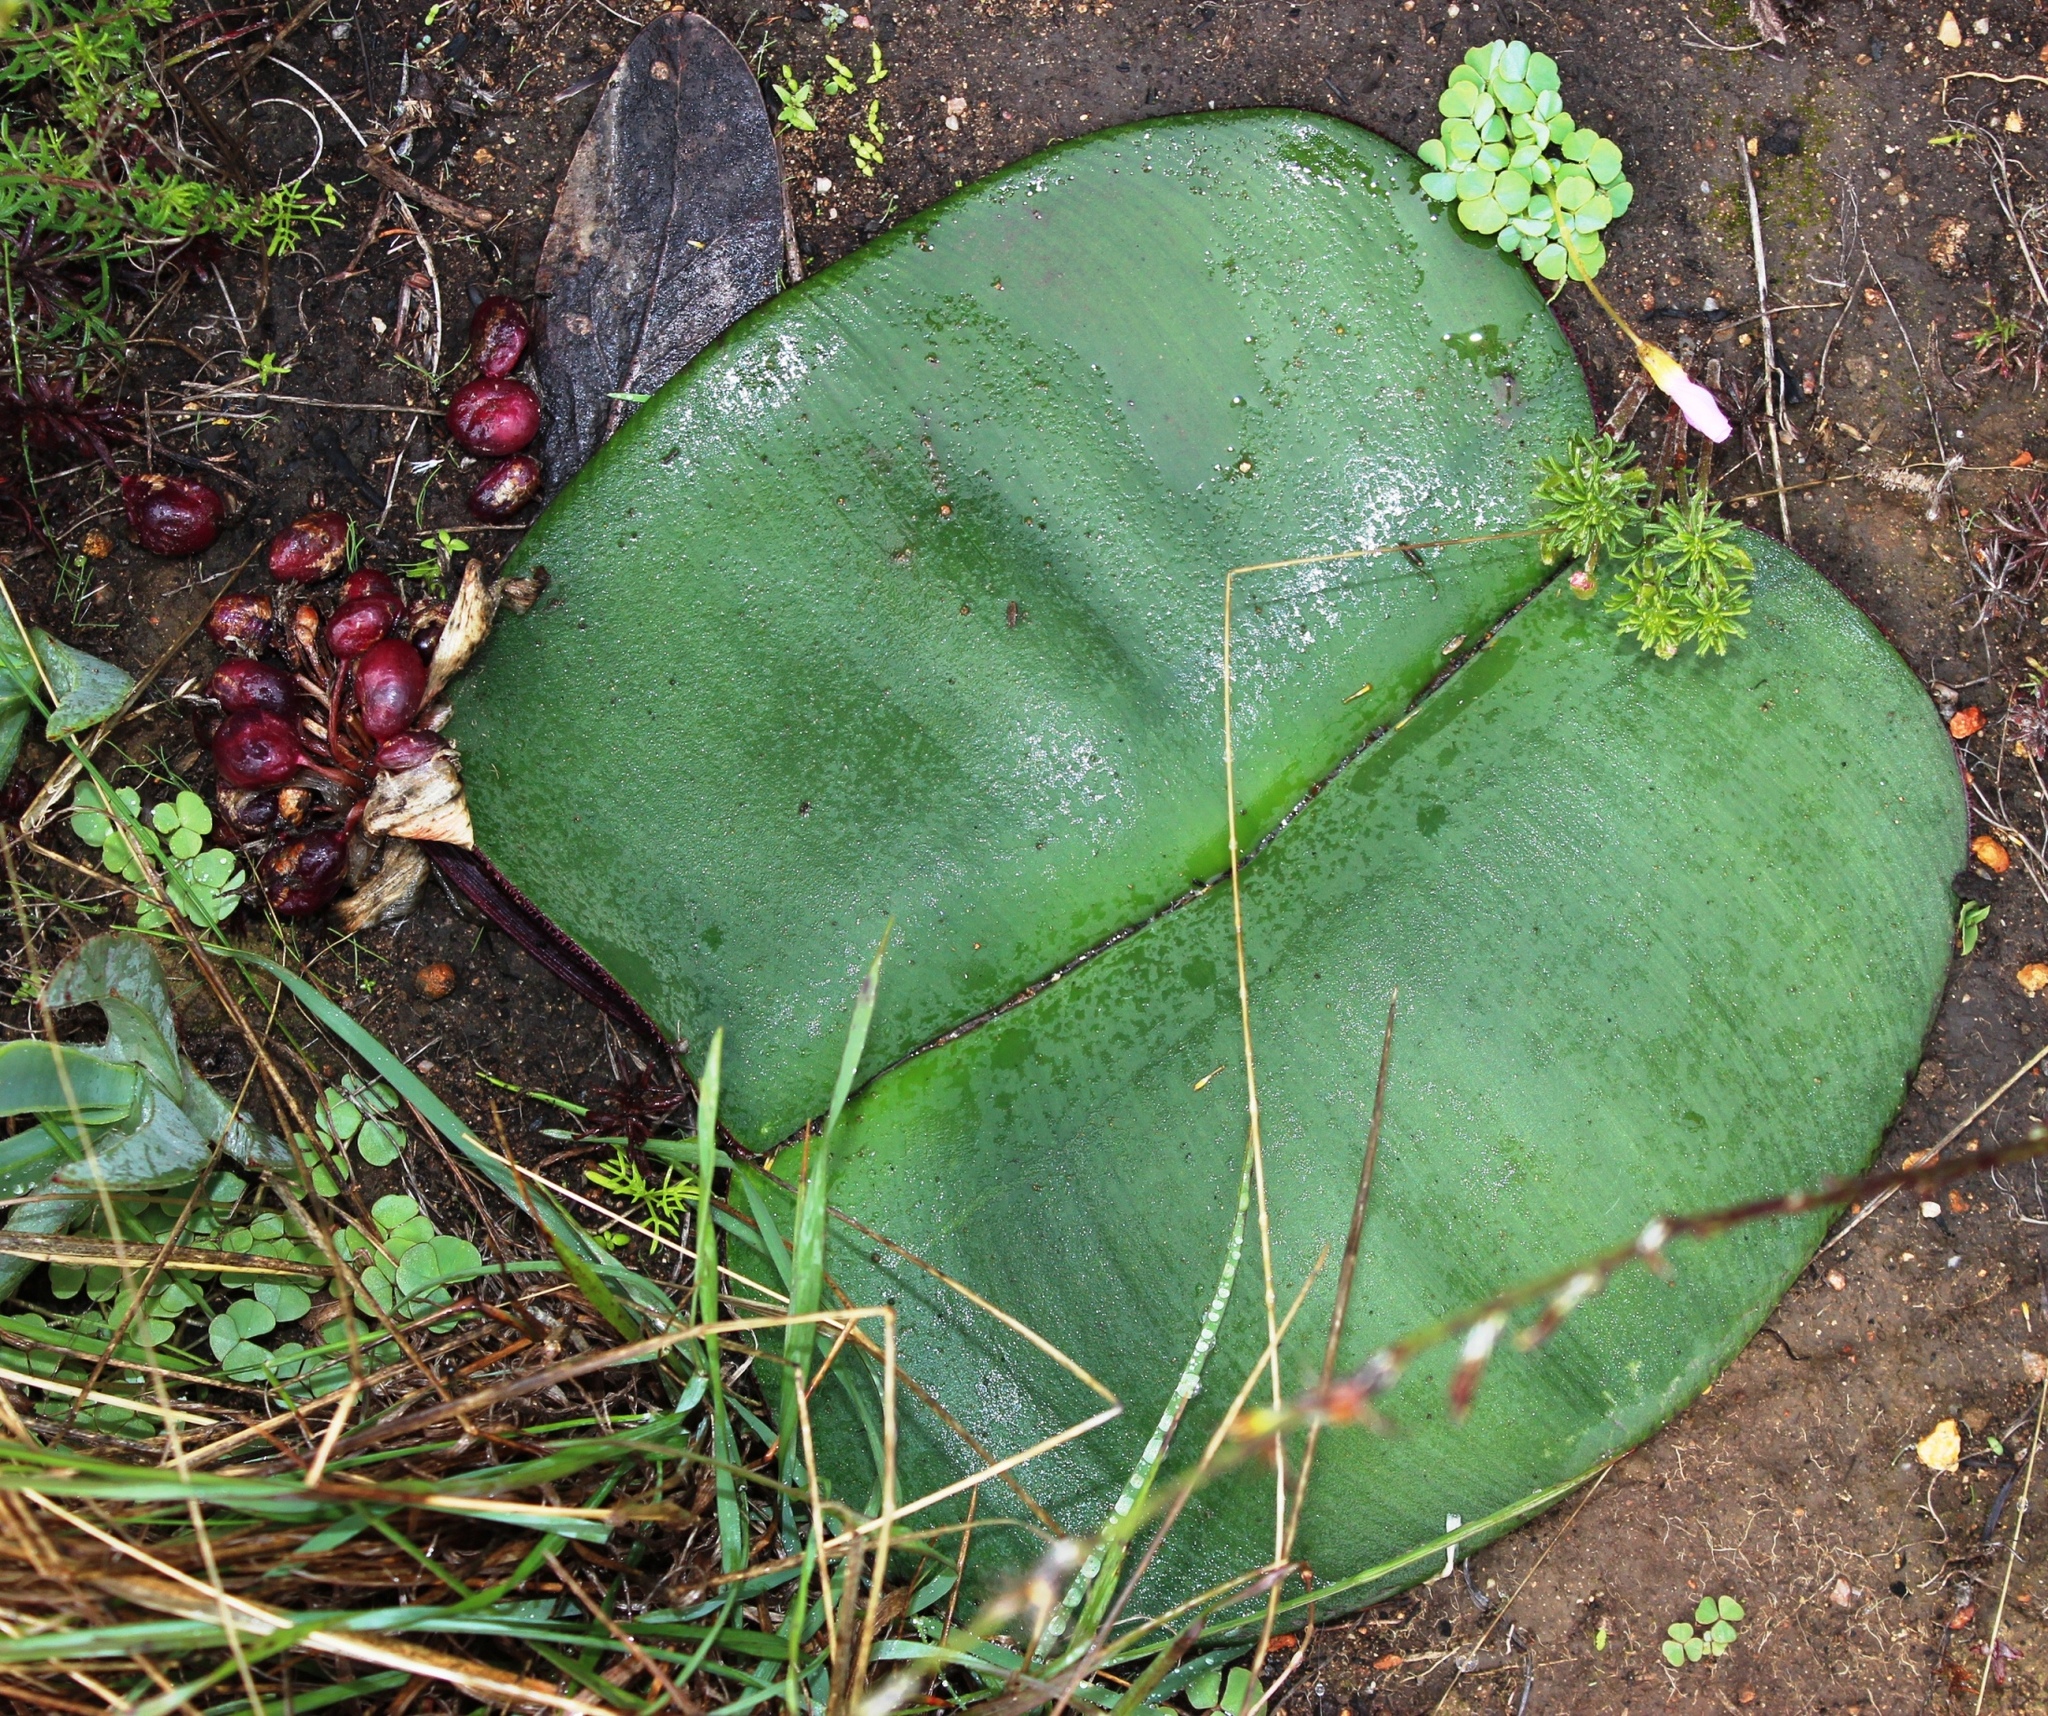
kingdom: Plantae
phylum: Tracheophyta
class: Liliopsida
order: Asparagales
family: Amaryllidaceae
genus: Haemanthus
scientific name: Haemanthus sanguineus
